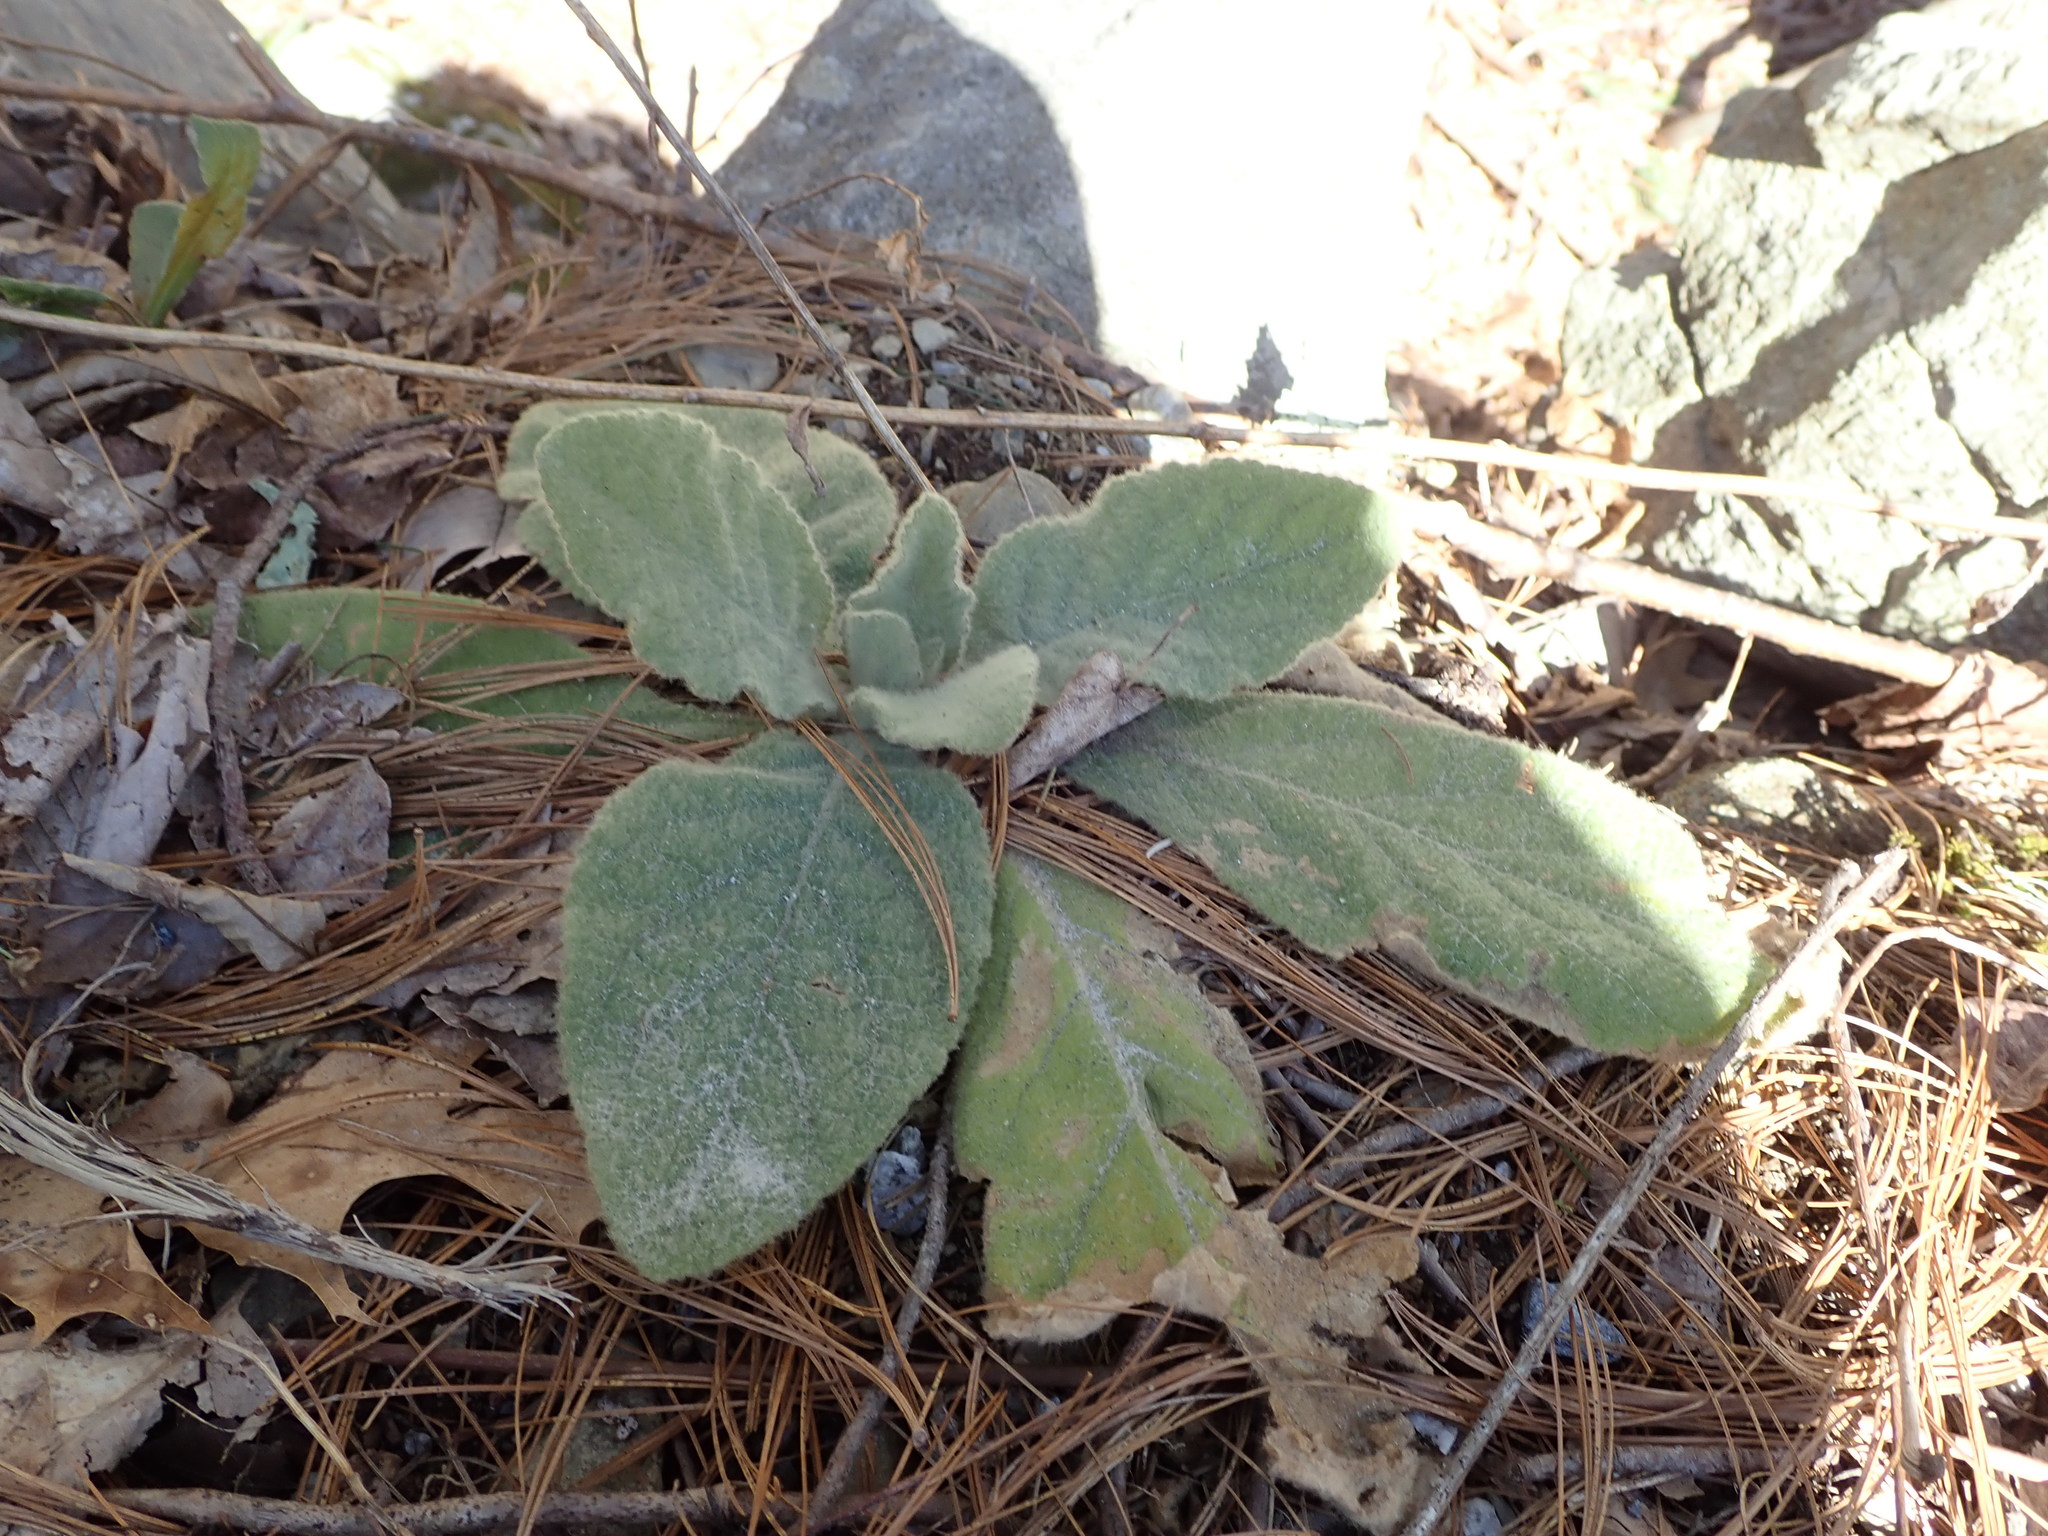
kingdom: Plantae
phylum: Tracheophyta
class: Magnoliopsida
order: Lamiales
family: Scrophulariaceae
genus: Verbascum
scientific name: Verbascum thapsus
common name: Common mullein
